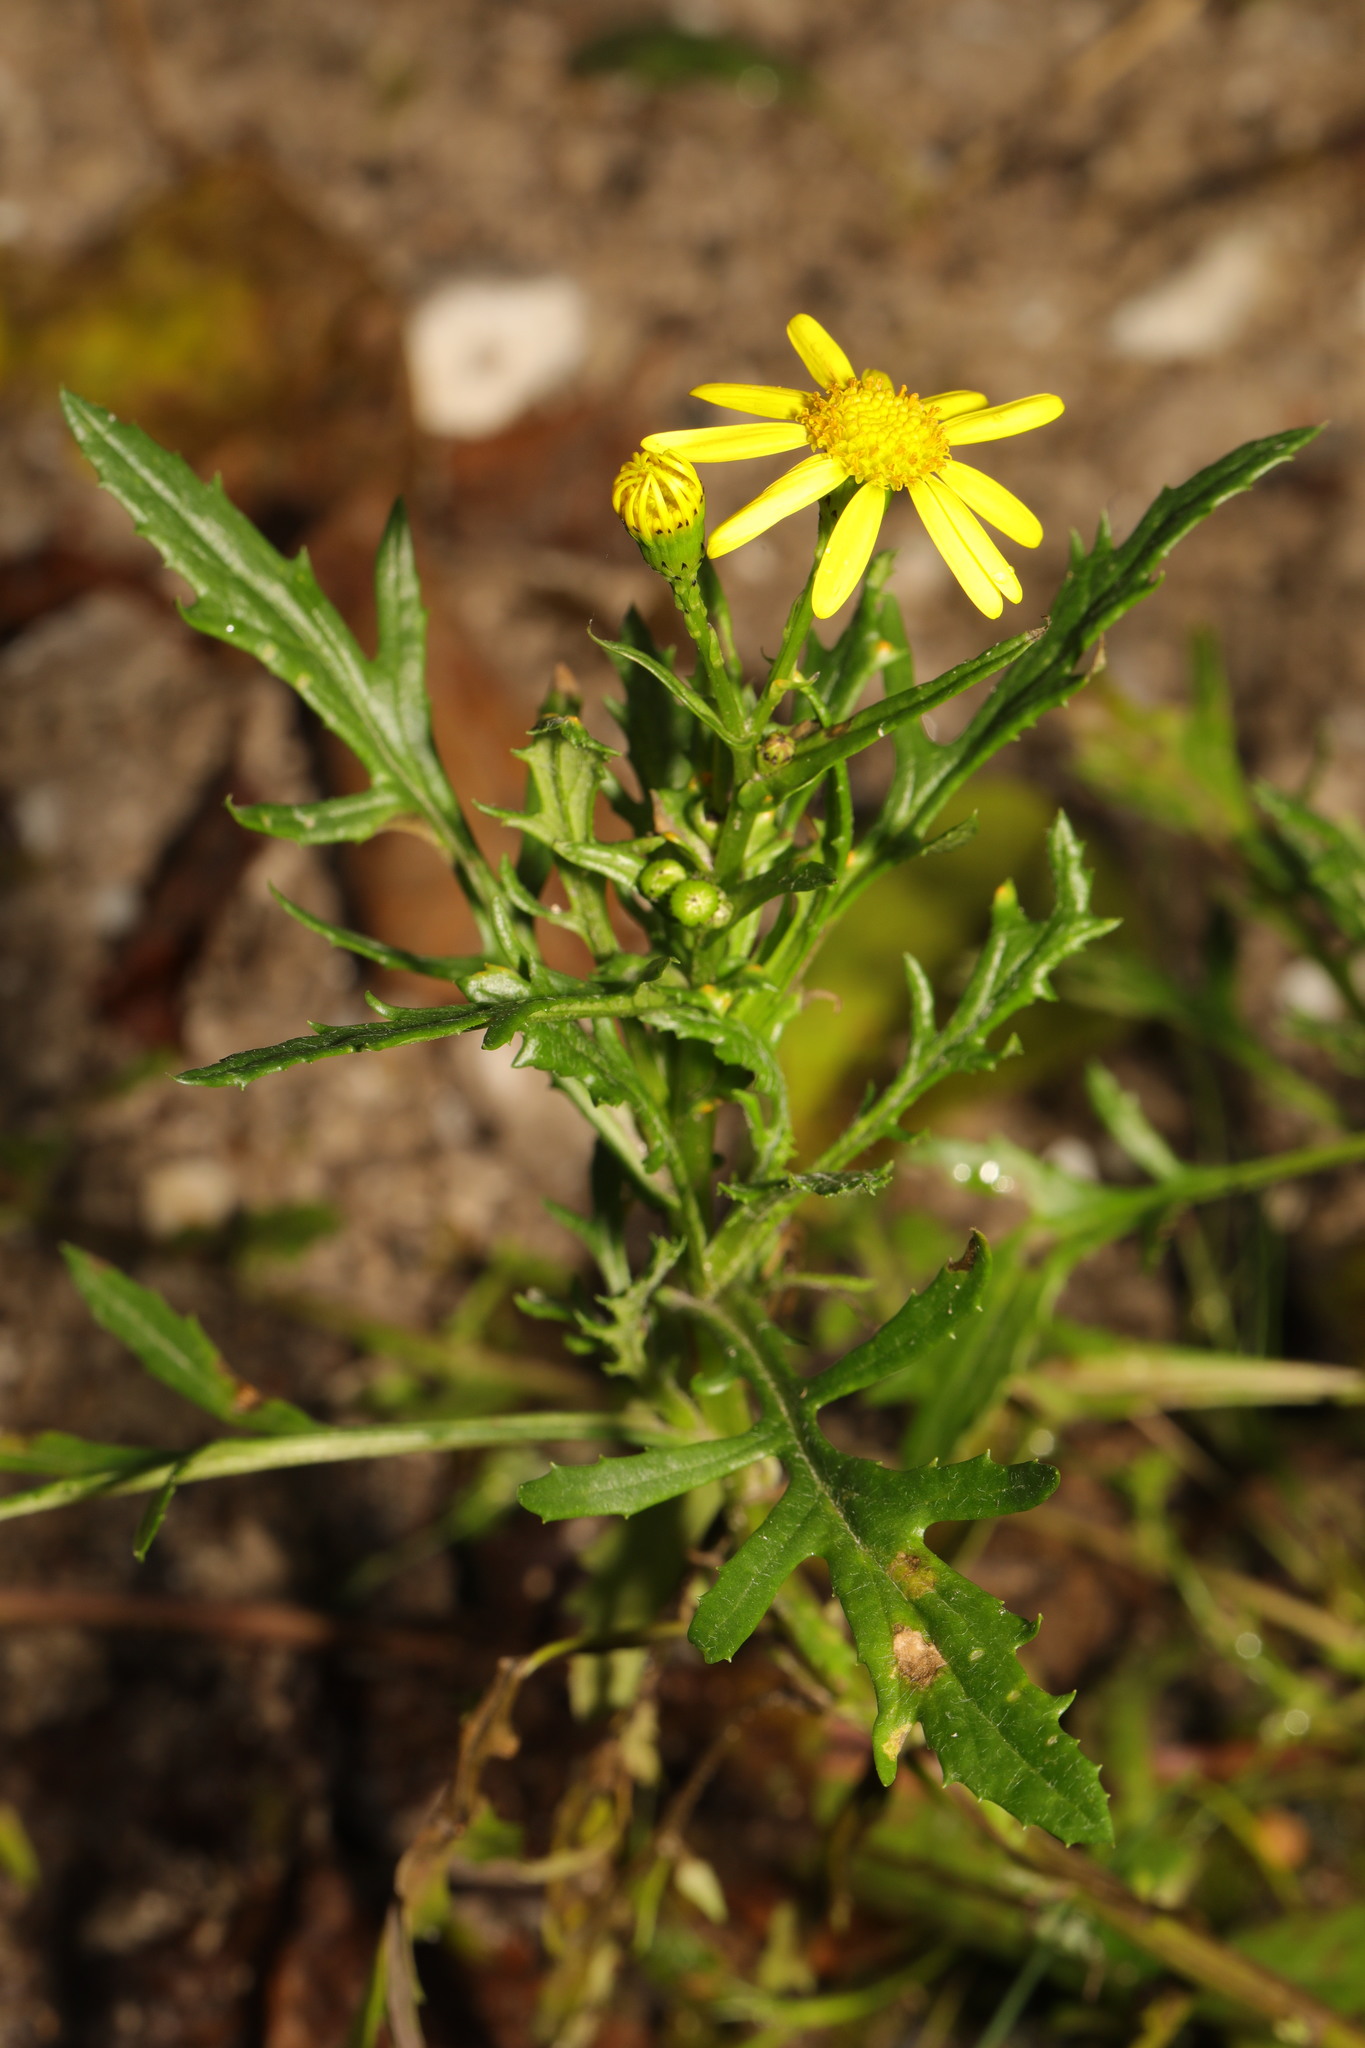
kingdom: Plantae
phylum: Tracheophyta
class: Magnoliopsida
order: Asterales
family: Asteraceae
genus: Senecio
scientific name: Senecio squalidus
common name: Oxford ragwort
